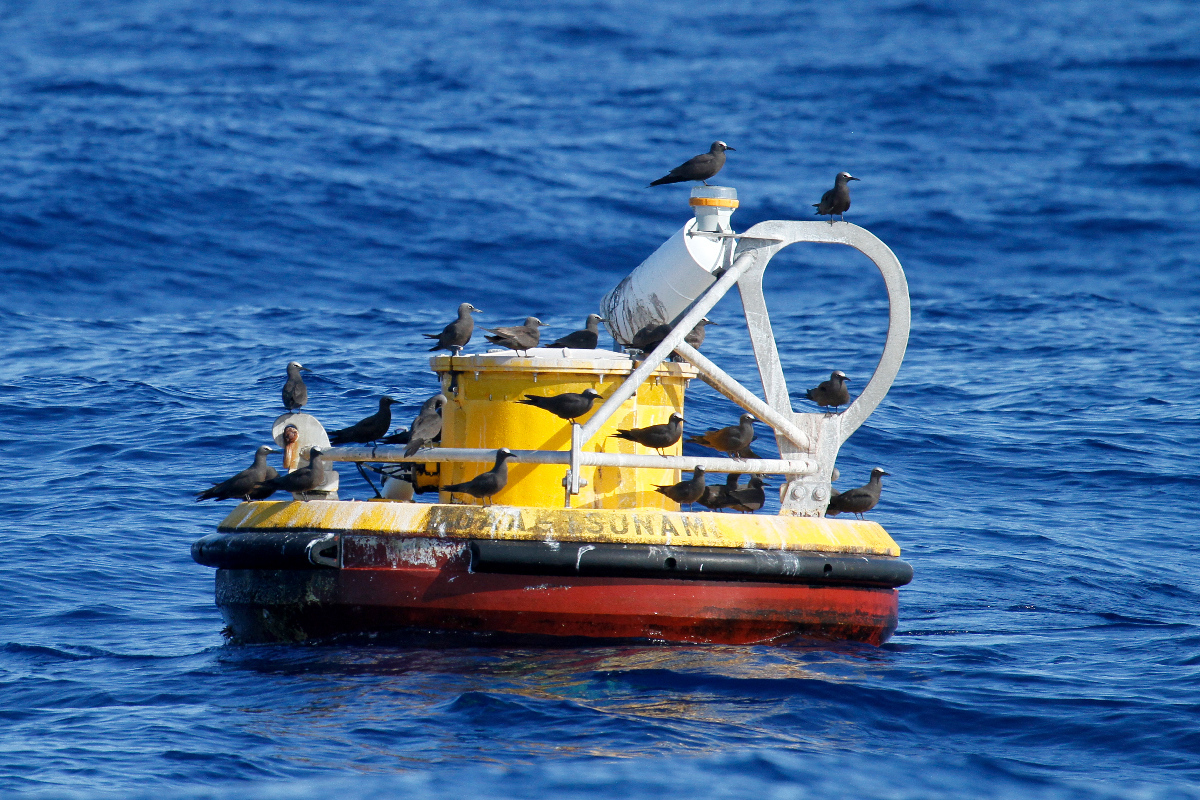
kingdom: Animalia
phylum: Chordata
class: Aves
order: Charadriiformes
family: Laridae
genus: Anous
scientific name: Anous stolidus
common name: Brown noddy
